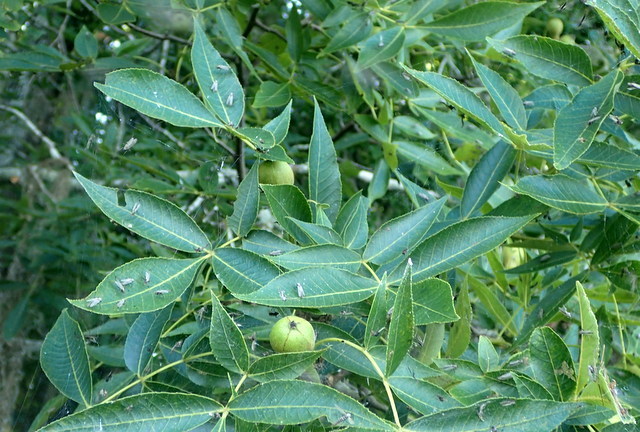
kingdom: Plantae
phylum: Tracheophyta
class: Magnoliopsida
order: Fagales
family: Juglandaceae
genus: Carya
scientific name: Carya glabra
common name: Pignut hickory
